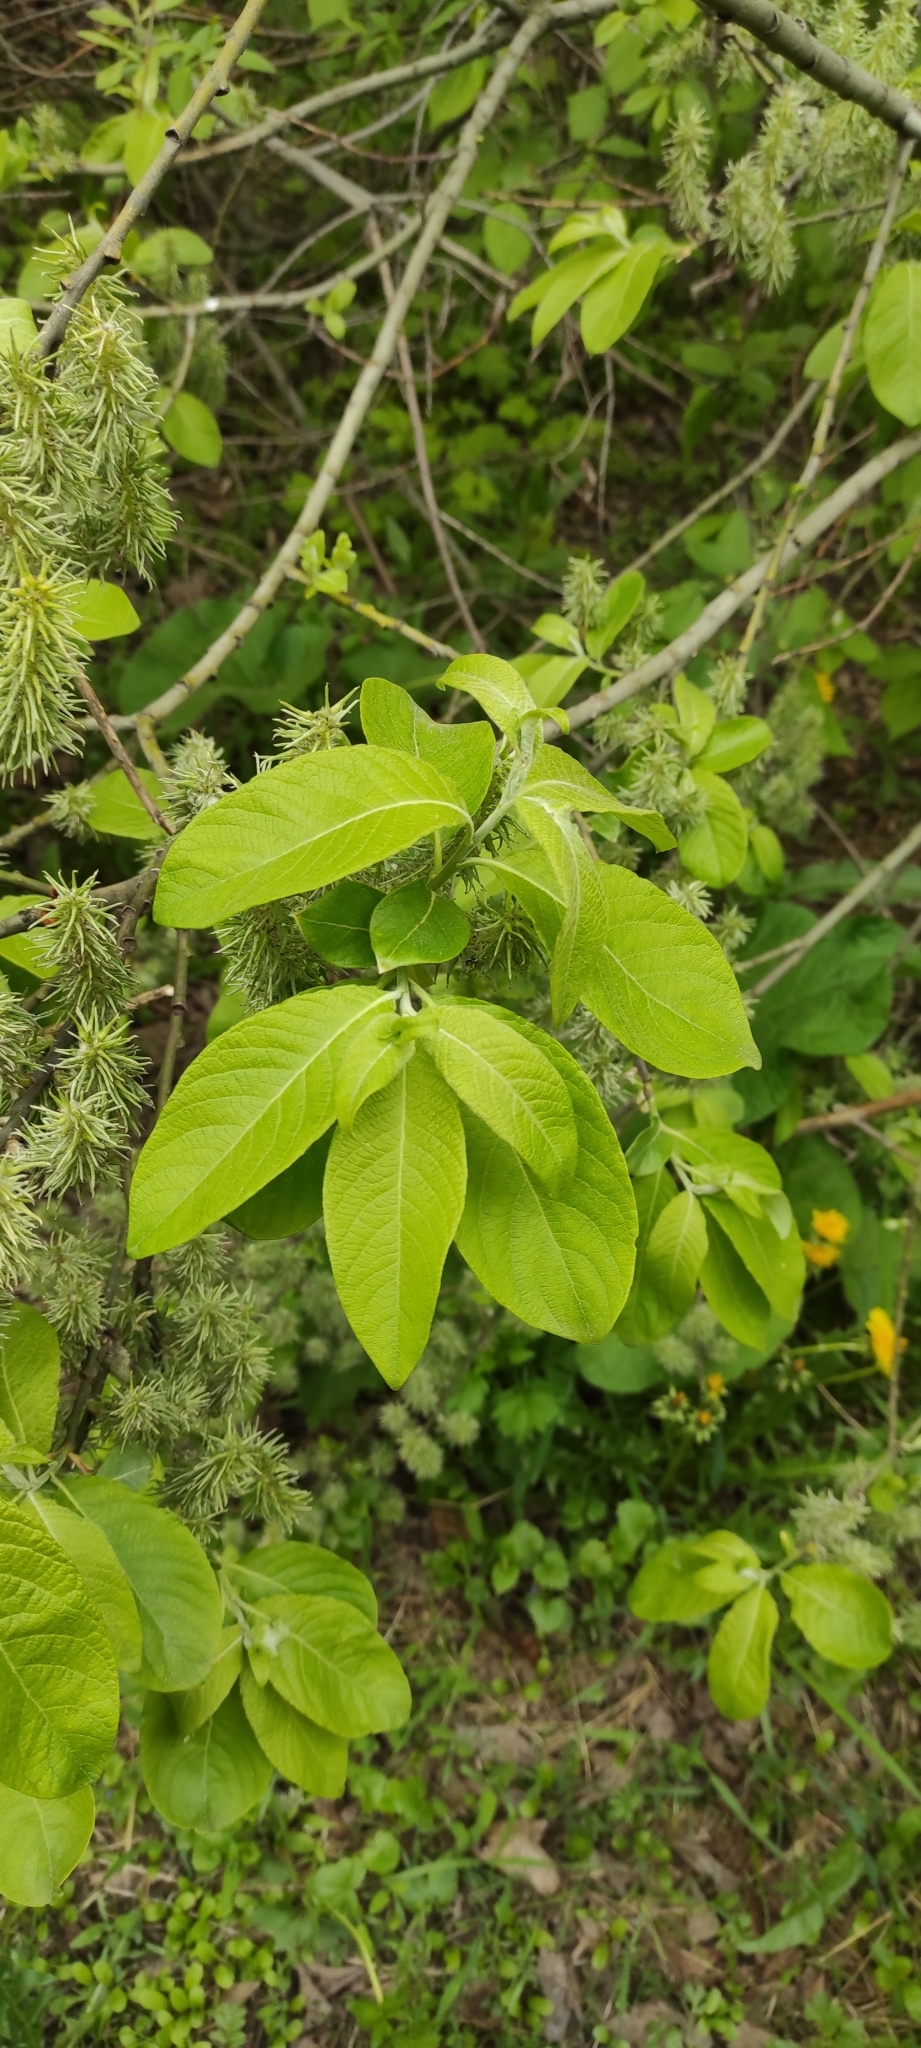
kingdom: Plantae
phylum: Tracheophyta
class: Magnoliopsida
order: Malpighiales
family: Salicaceae
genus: Salix
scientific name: Salix caprea
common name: Goat willow
